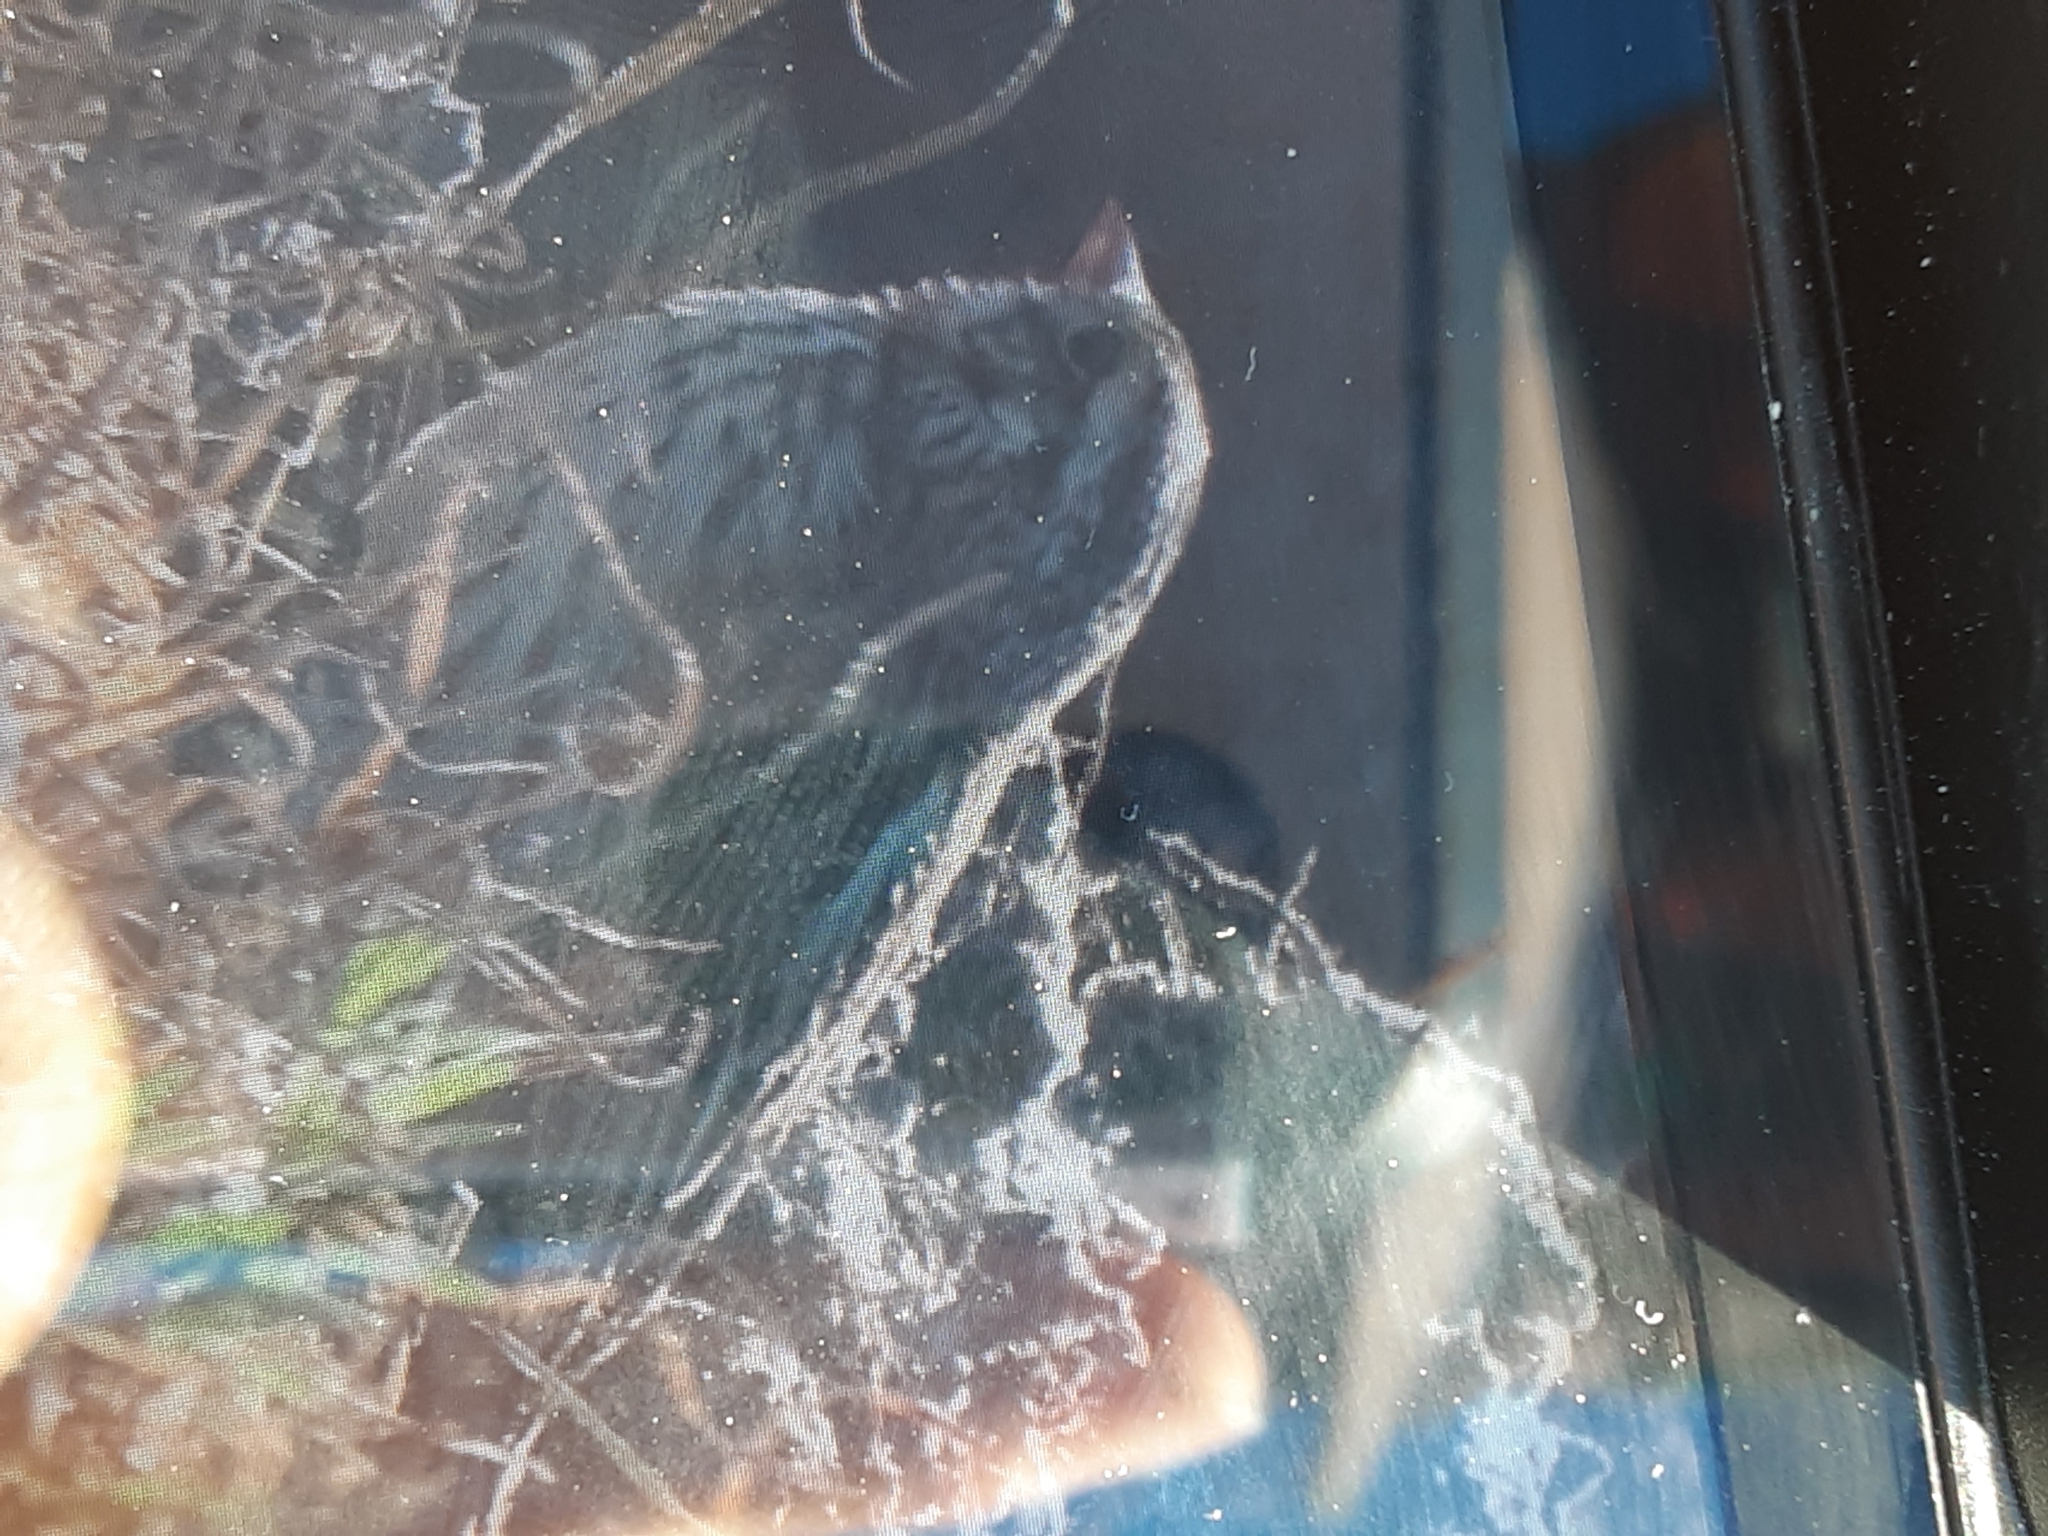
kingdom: Animalia
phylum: Chordata
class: Aves
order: Passeriformes
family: Passerellidae
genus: Passerculus
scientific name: Passerculus sandwichensis
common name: Savannah sparrow
